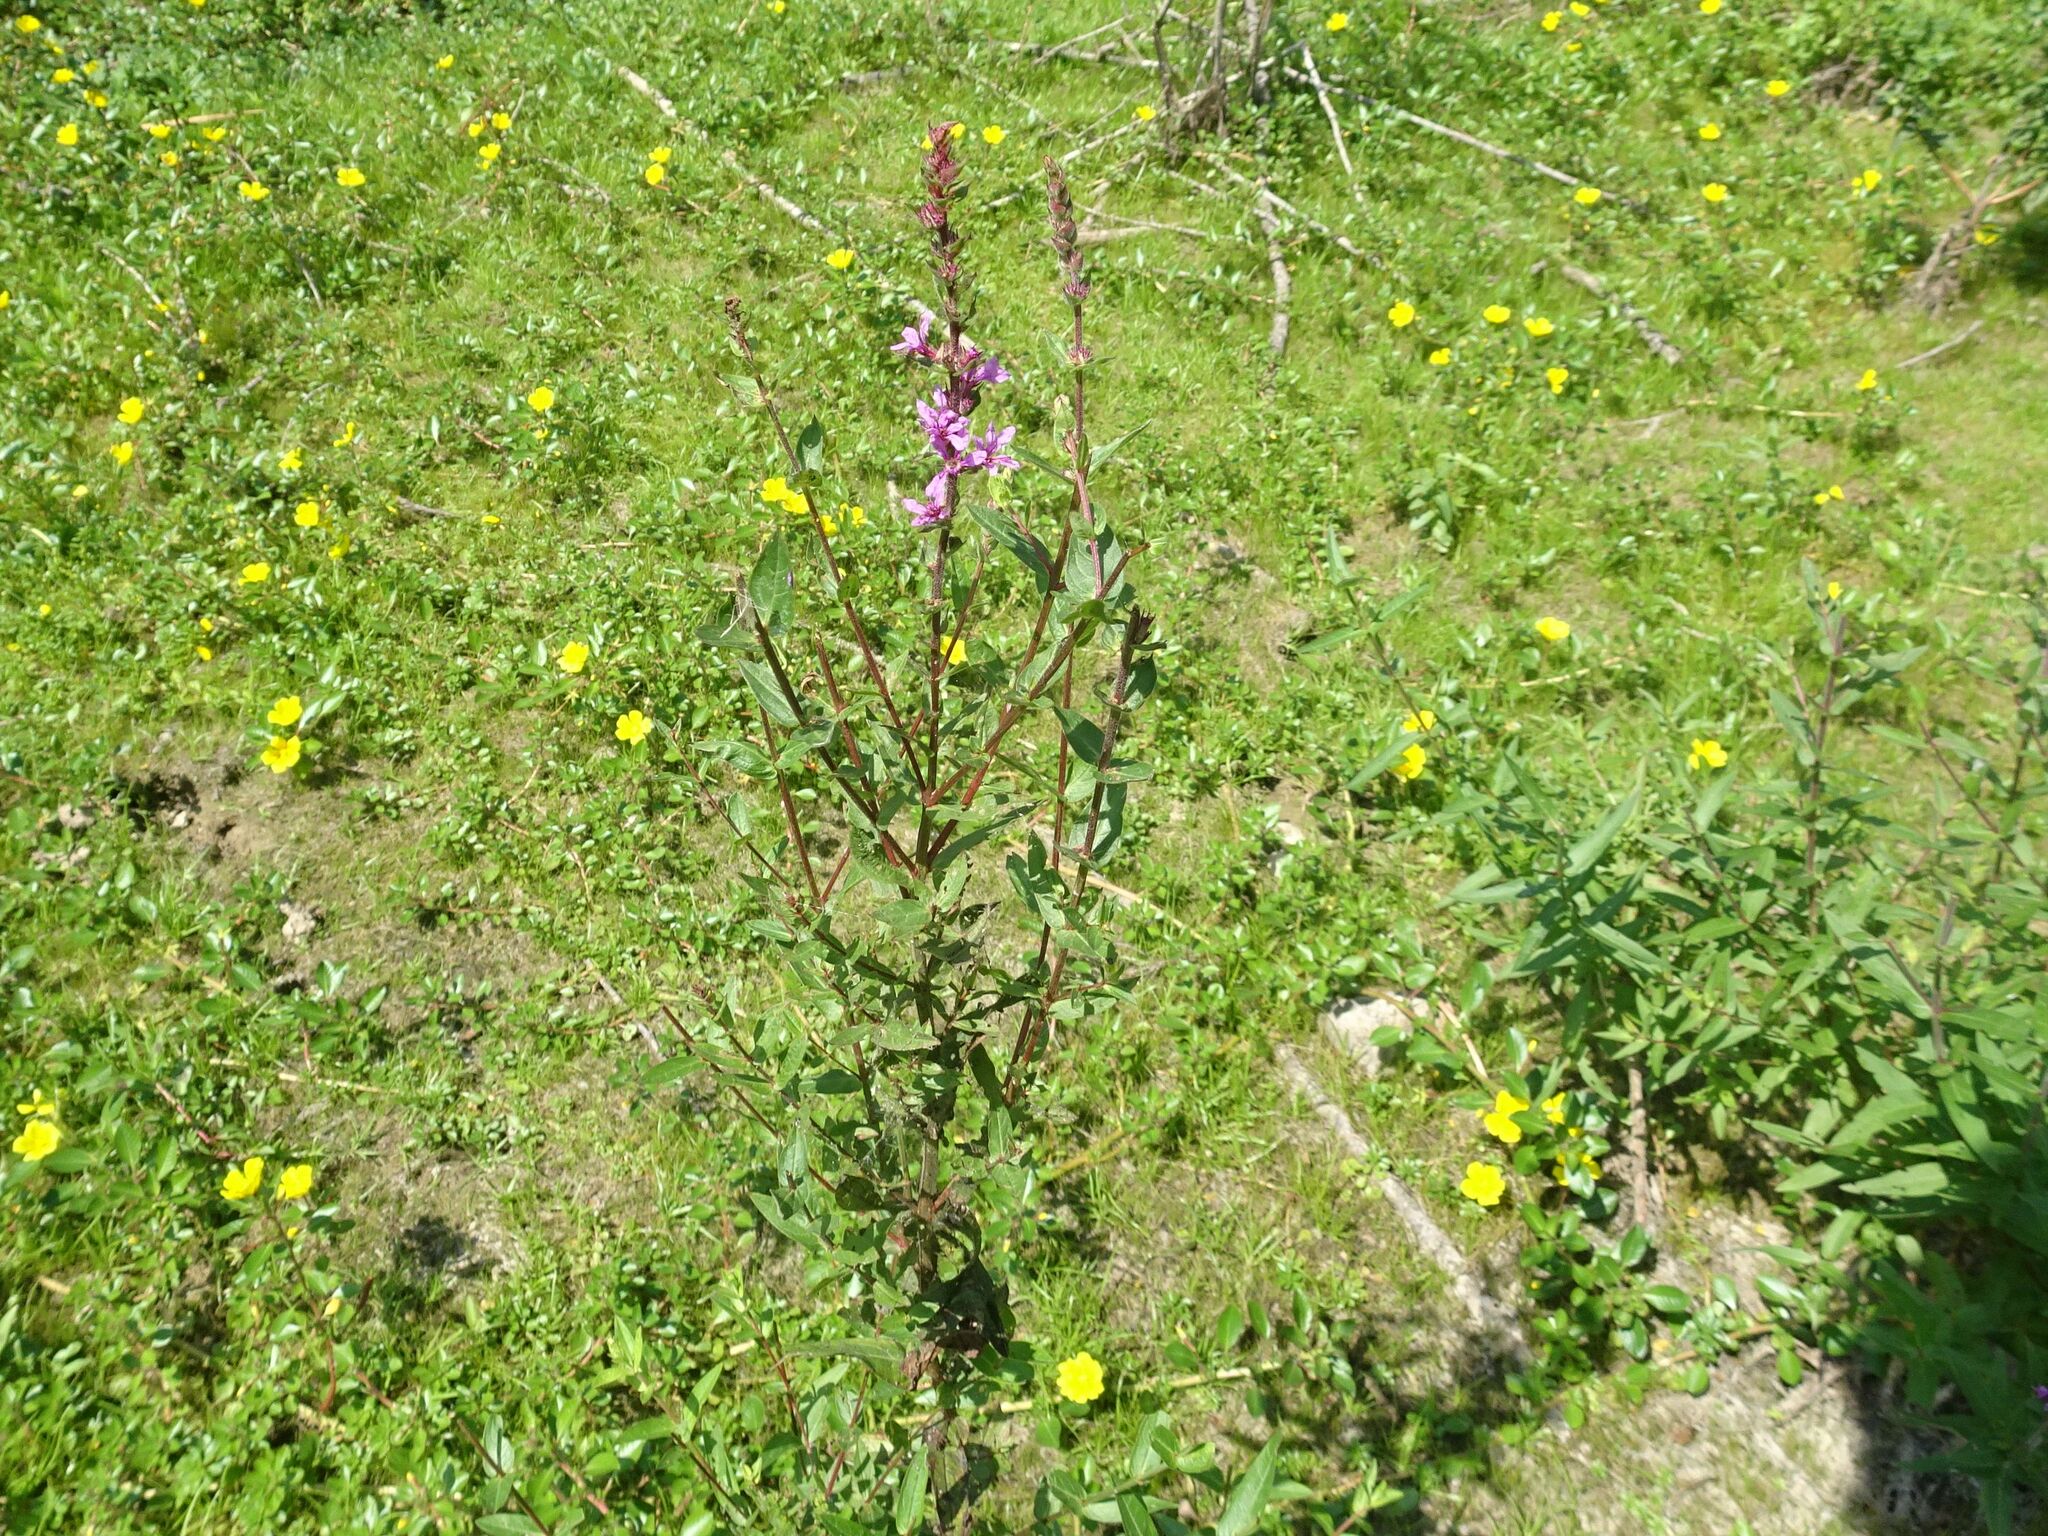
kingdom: Plantae
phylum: Tracheophyta
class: Magnoliopsida
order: Myrtales
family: Lythraceae
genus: Lythrum
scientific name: Lythrum salicaria
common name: Purple loosestrife
